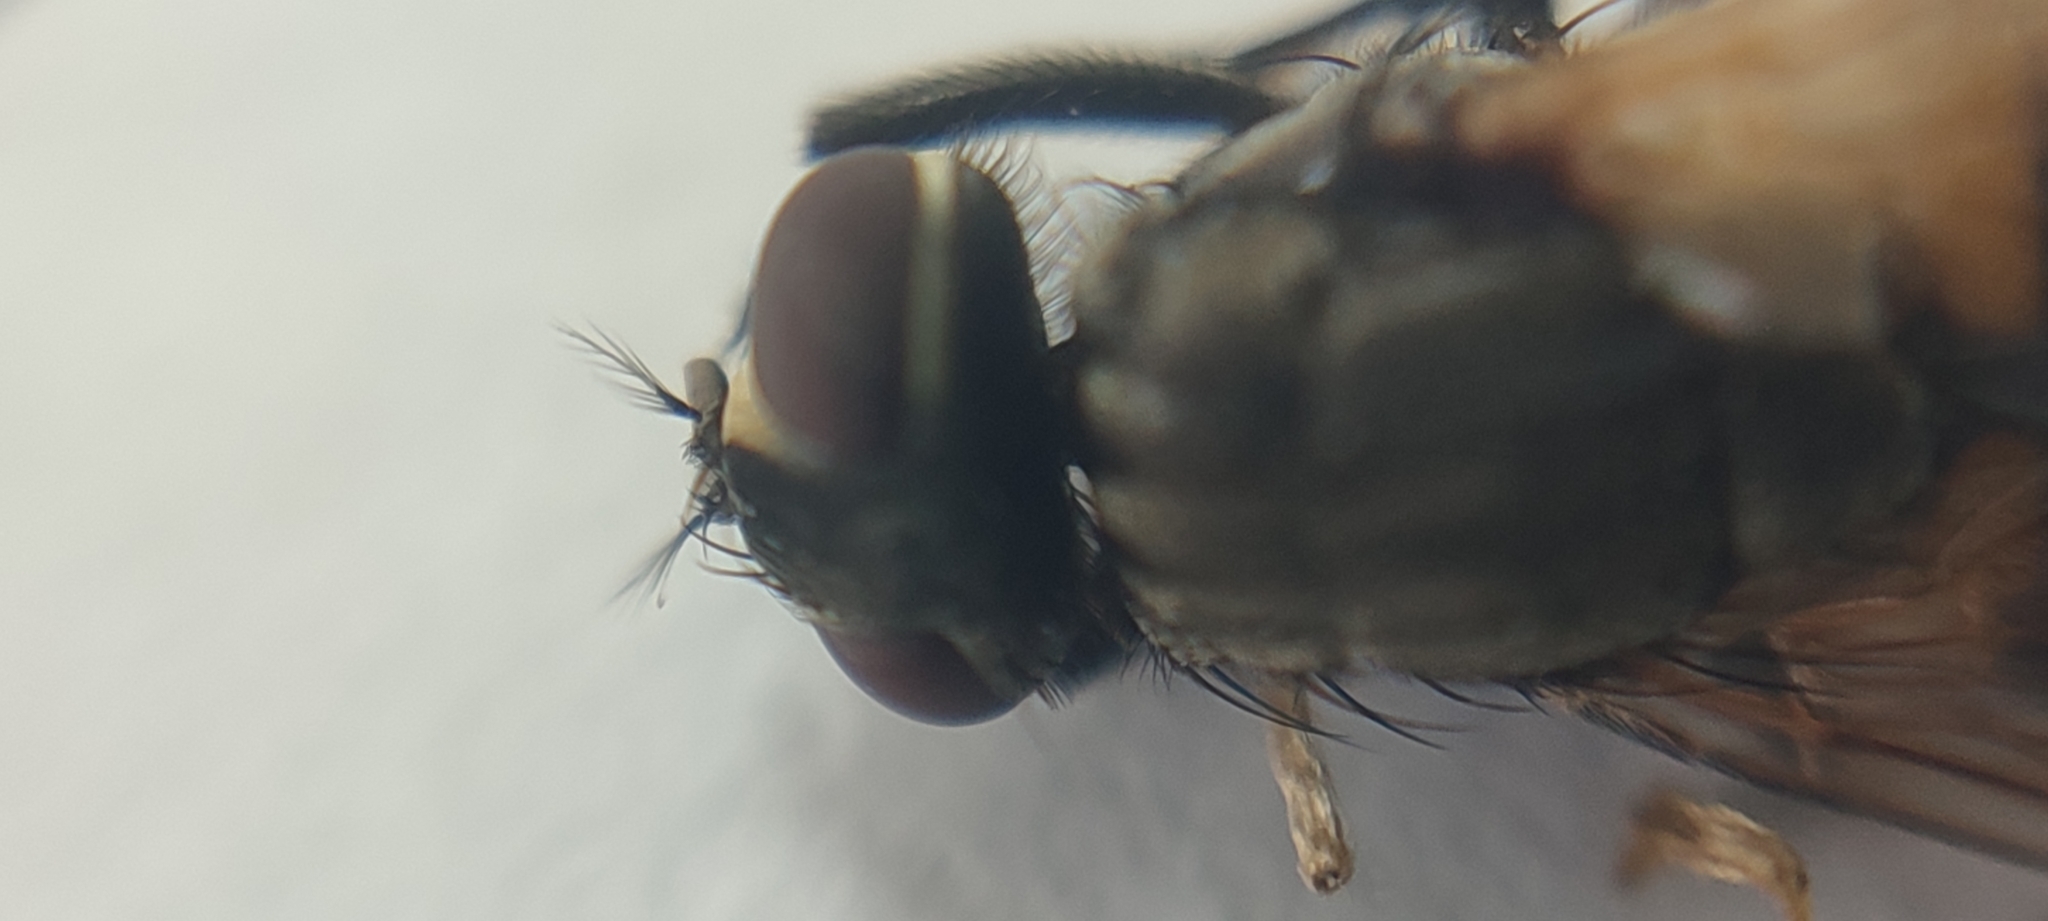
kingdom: Animalia
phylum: Arthropoda
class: Insecta
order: Diptera
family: Muscidae
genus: Musca
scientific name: Musca domestica
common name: House fly
